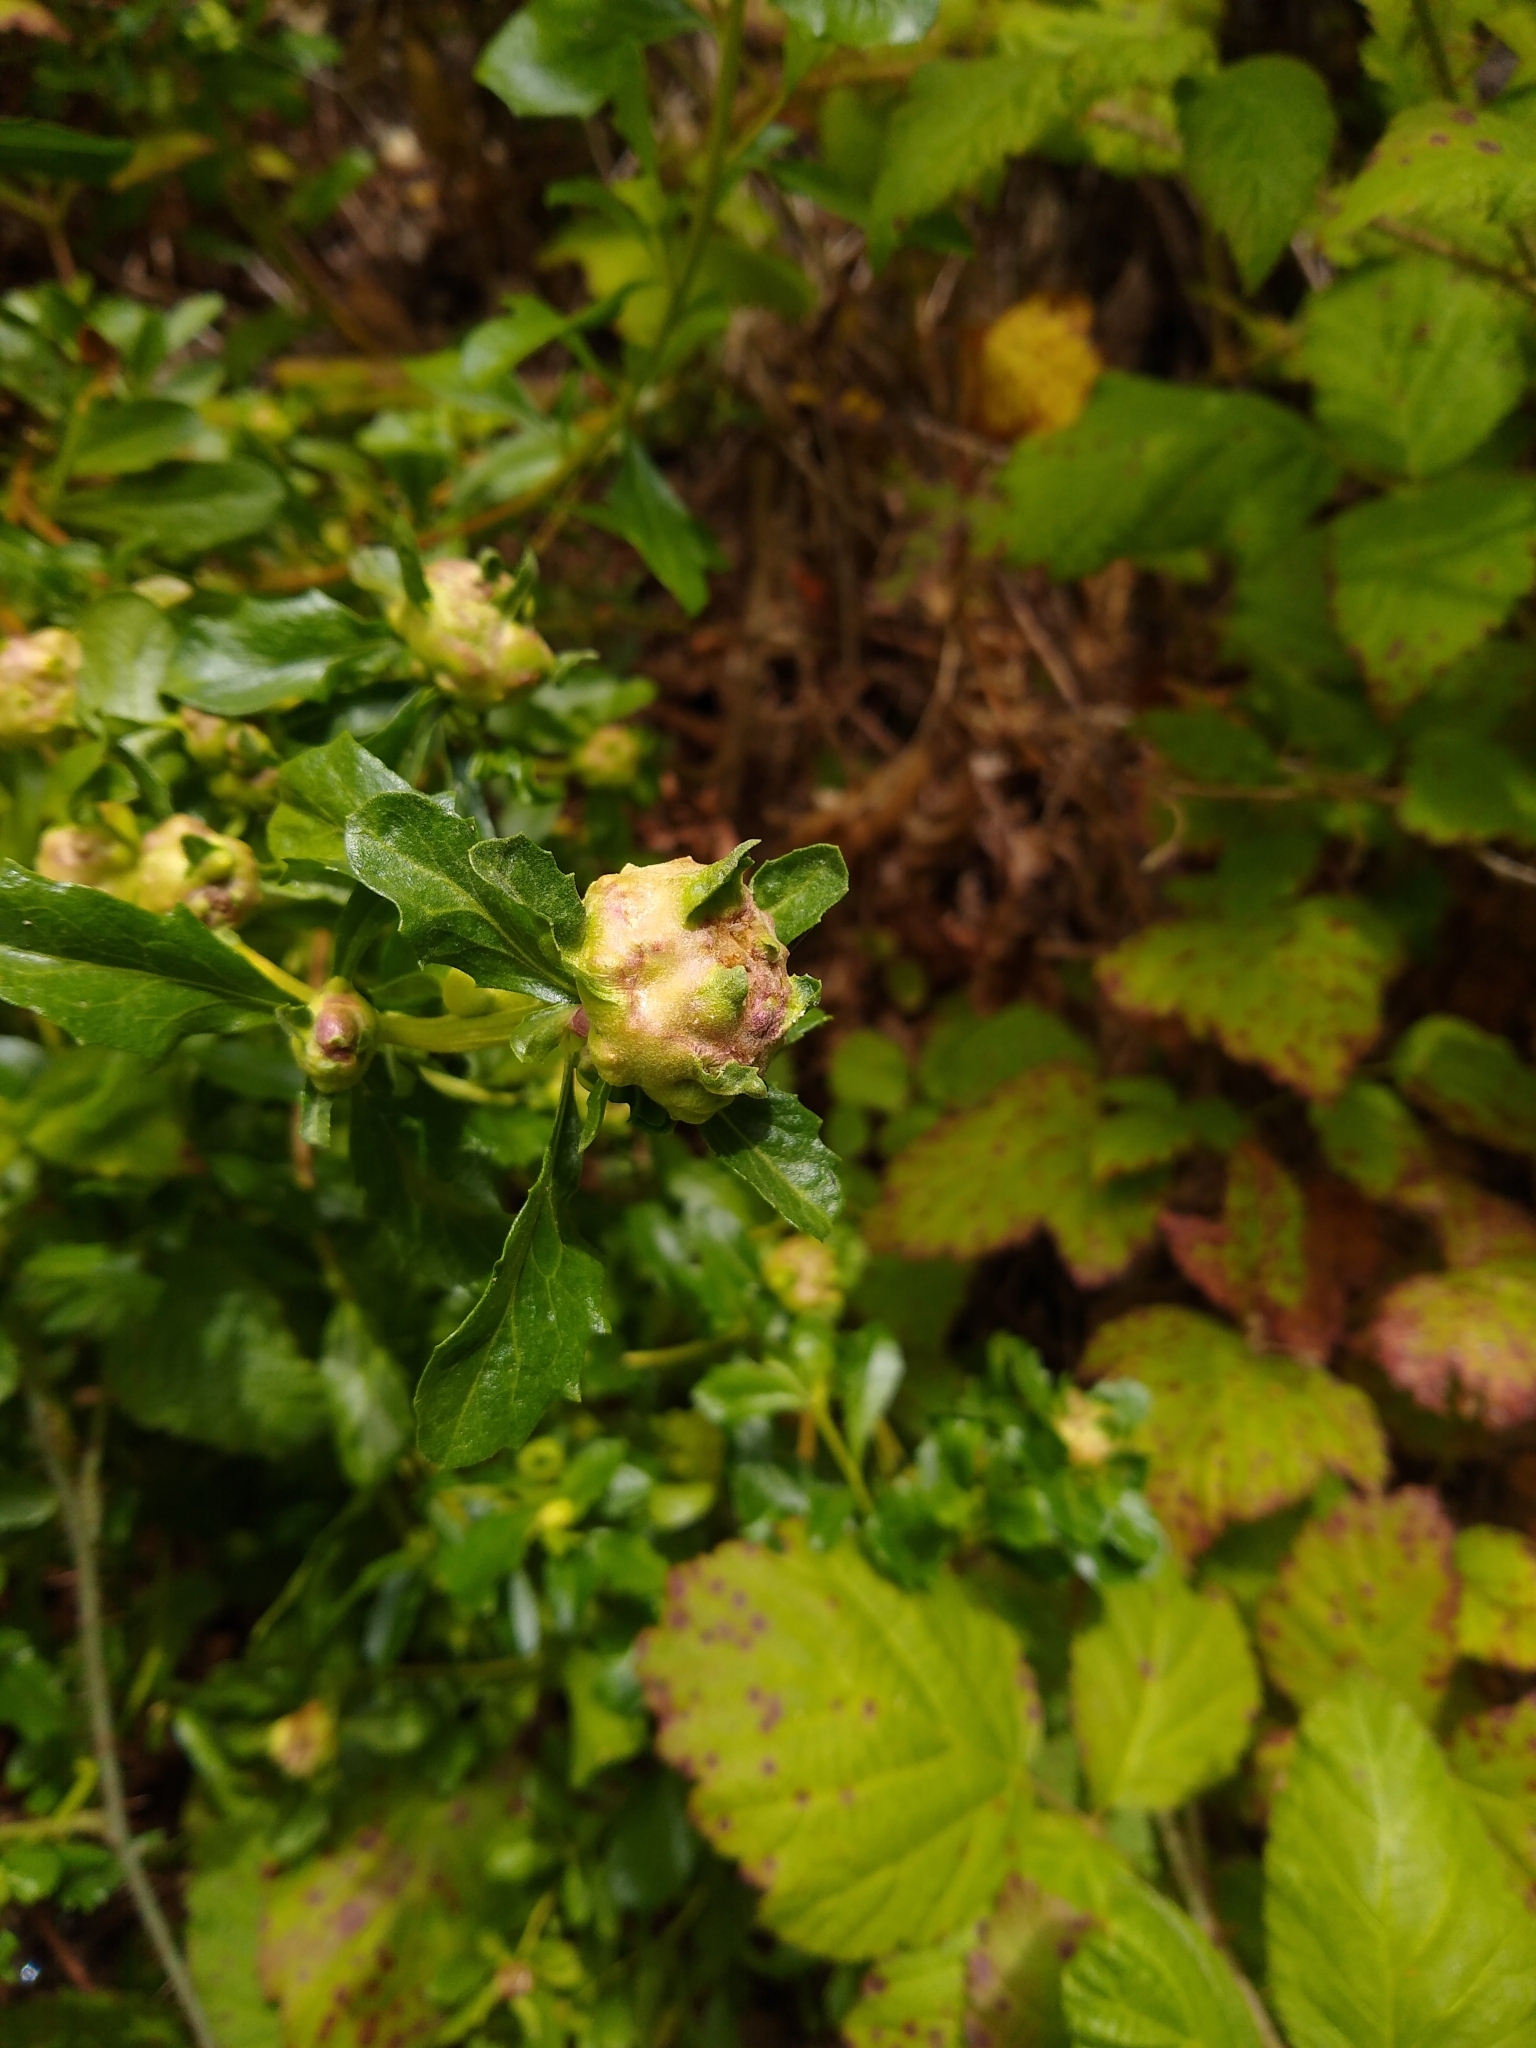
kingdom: Animalia
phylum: Arthropoda
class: Insecta
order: Diptera
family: Cecidomyiidae
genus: Rhopalomyia
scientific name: Rhopalomyia californica
